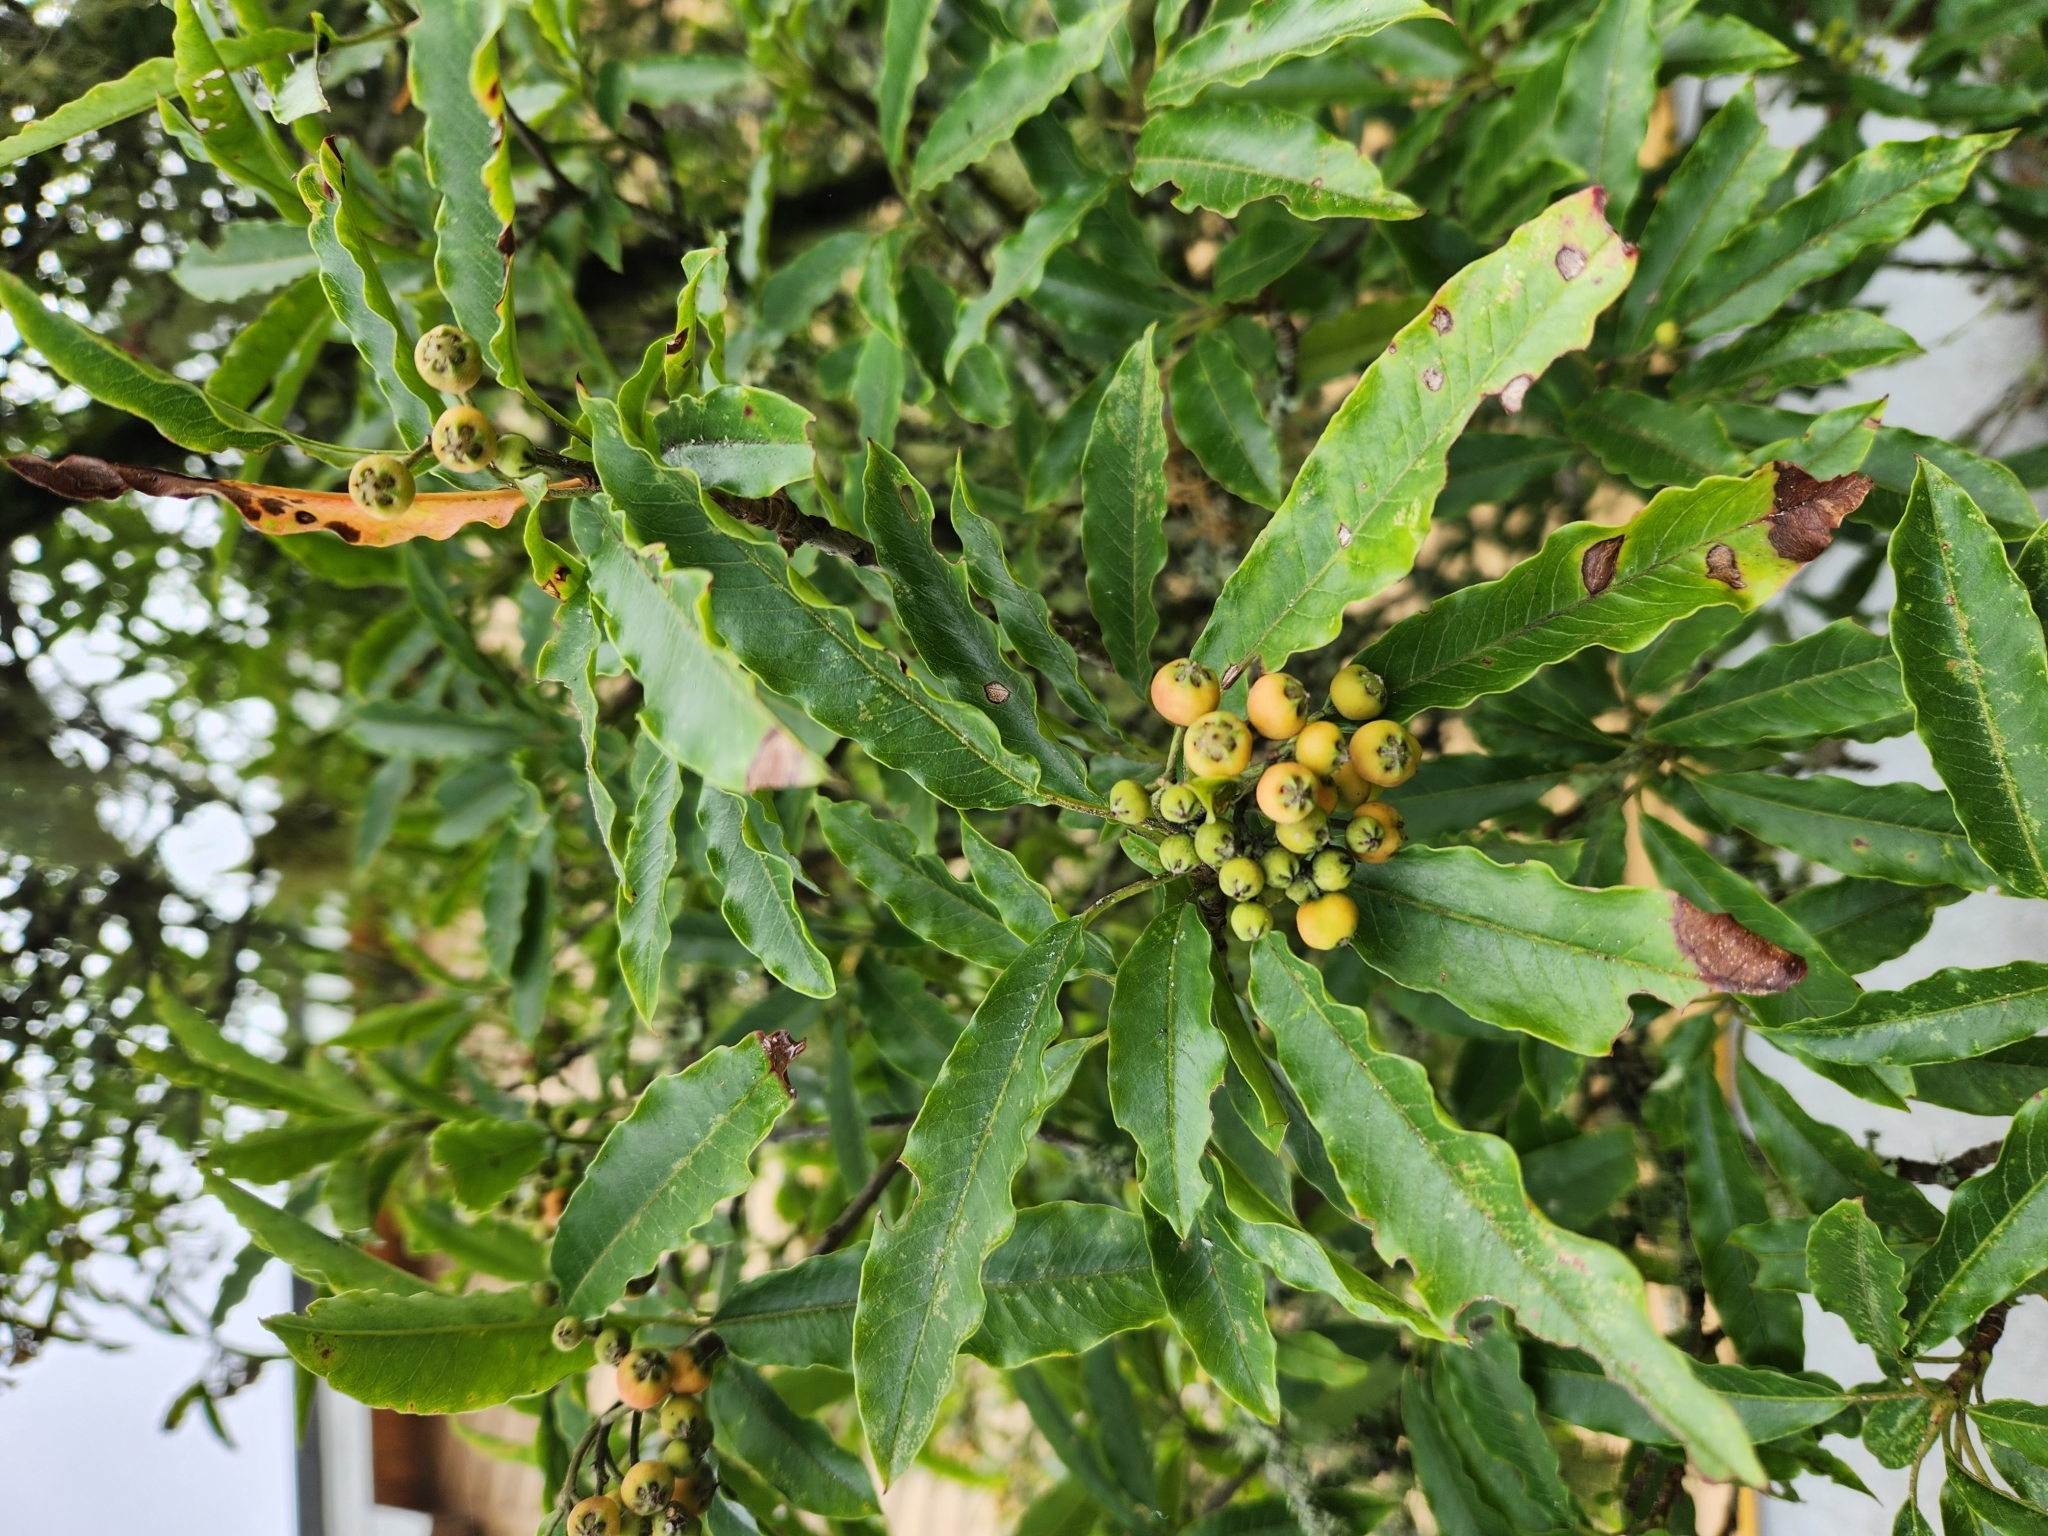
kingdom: Plantae
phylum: Tracheophyta
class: Magnoliopsida
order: Rosales
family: Rosaceae
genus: Stranvaesia
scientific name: Stranvaesia davidiana
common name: Chinese photinia
